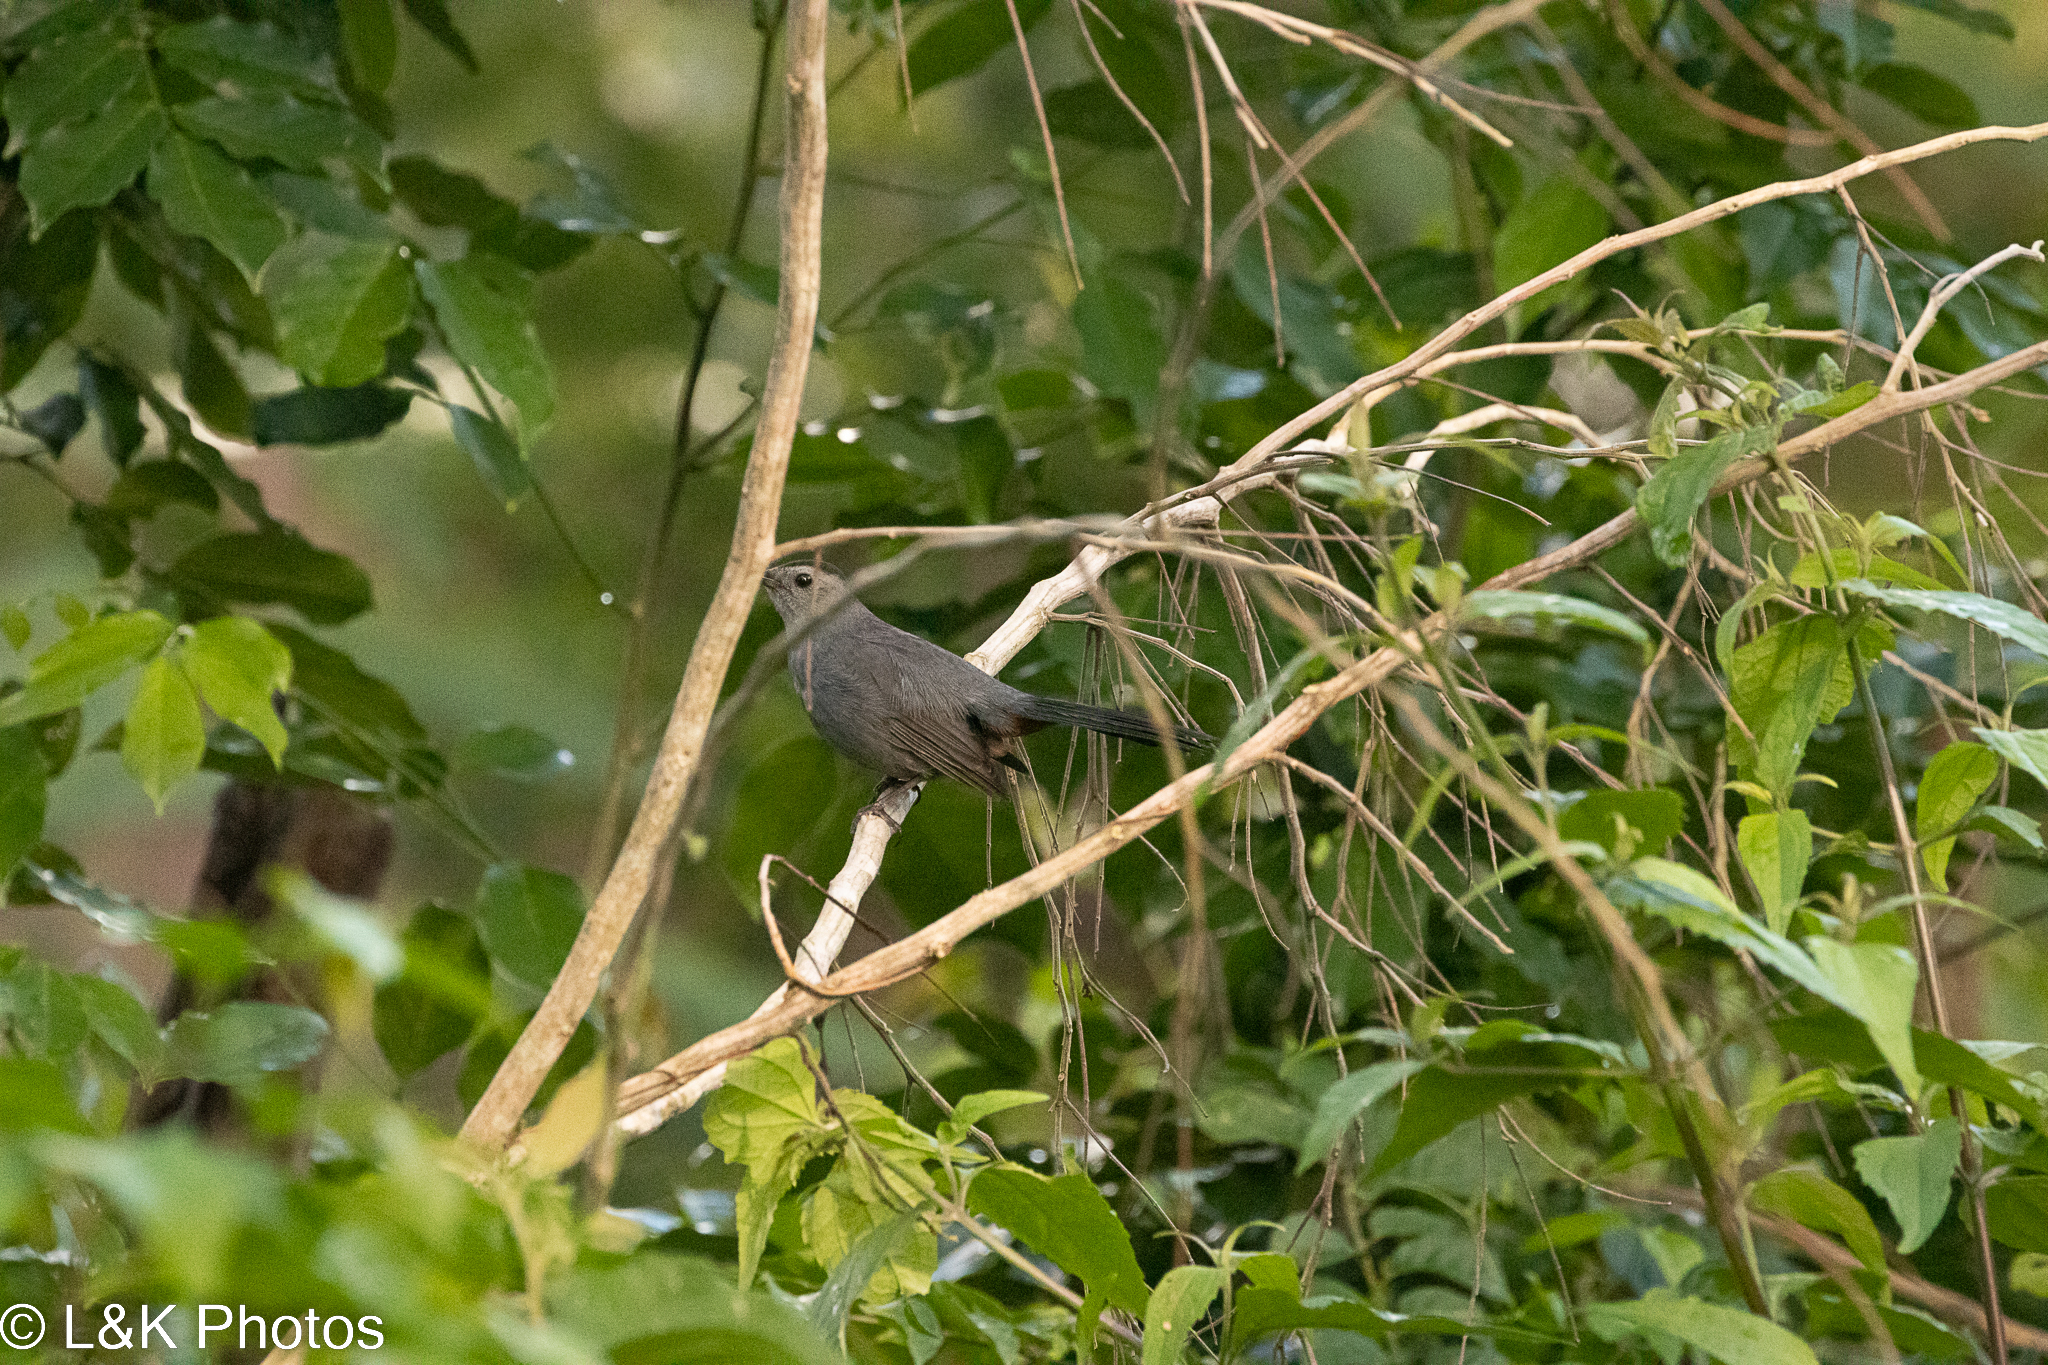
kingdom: Animalia
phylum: Chordata
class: Aves
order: Passeriformes
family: Mimidae
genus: Dumetella
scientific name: Dumetella carolinensis
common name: Gray catbird
